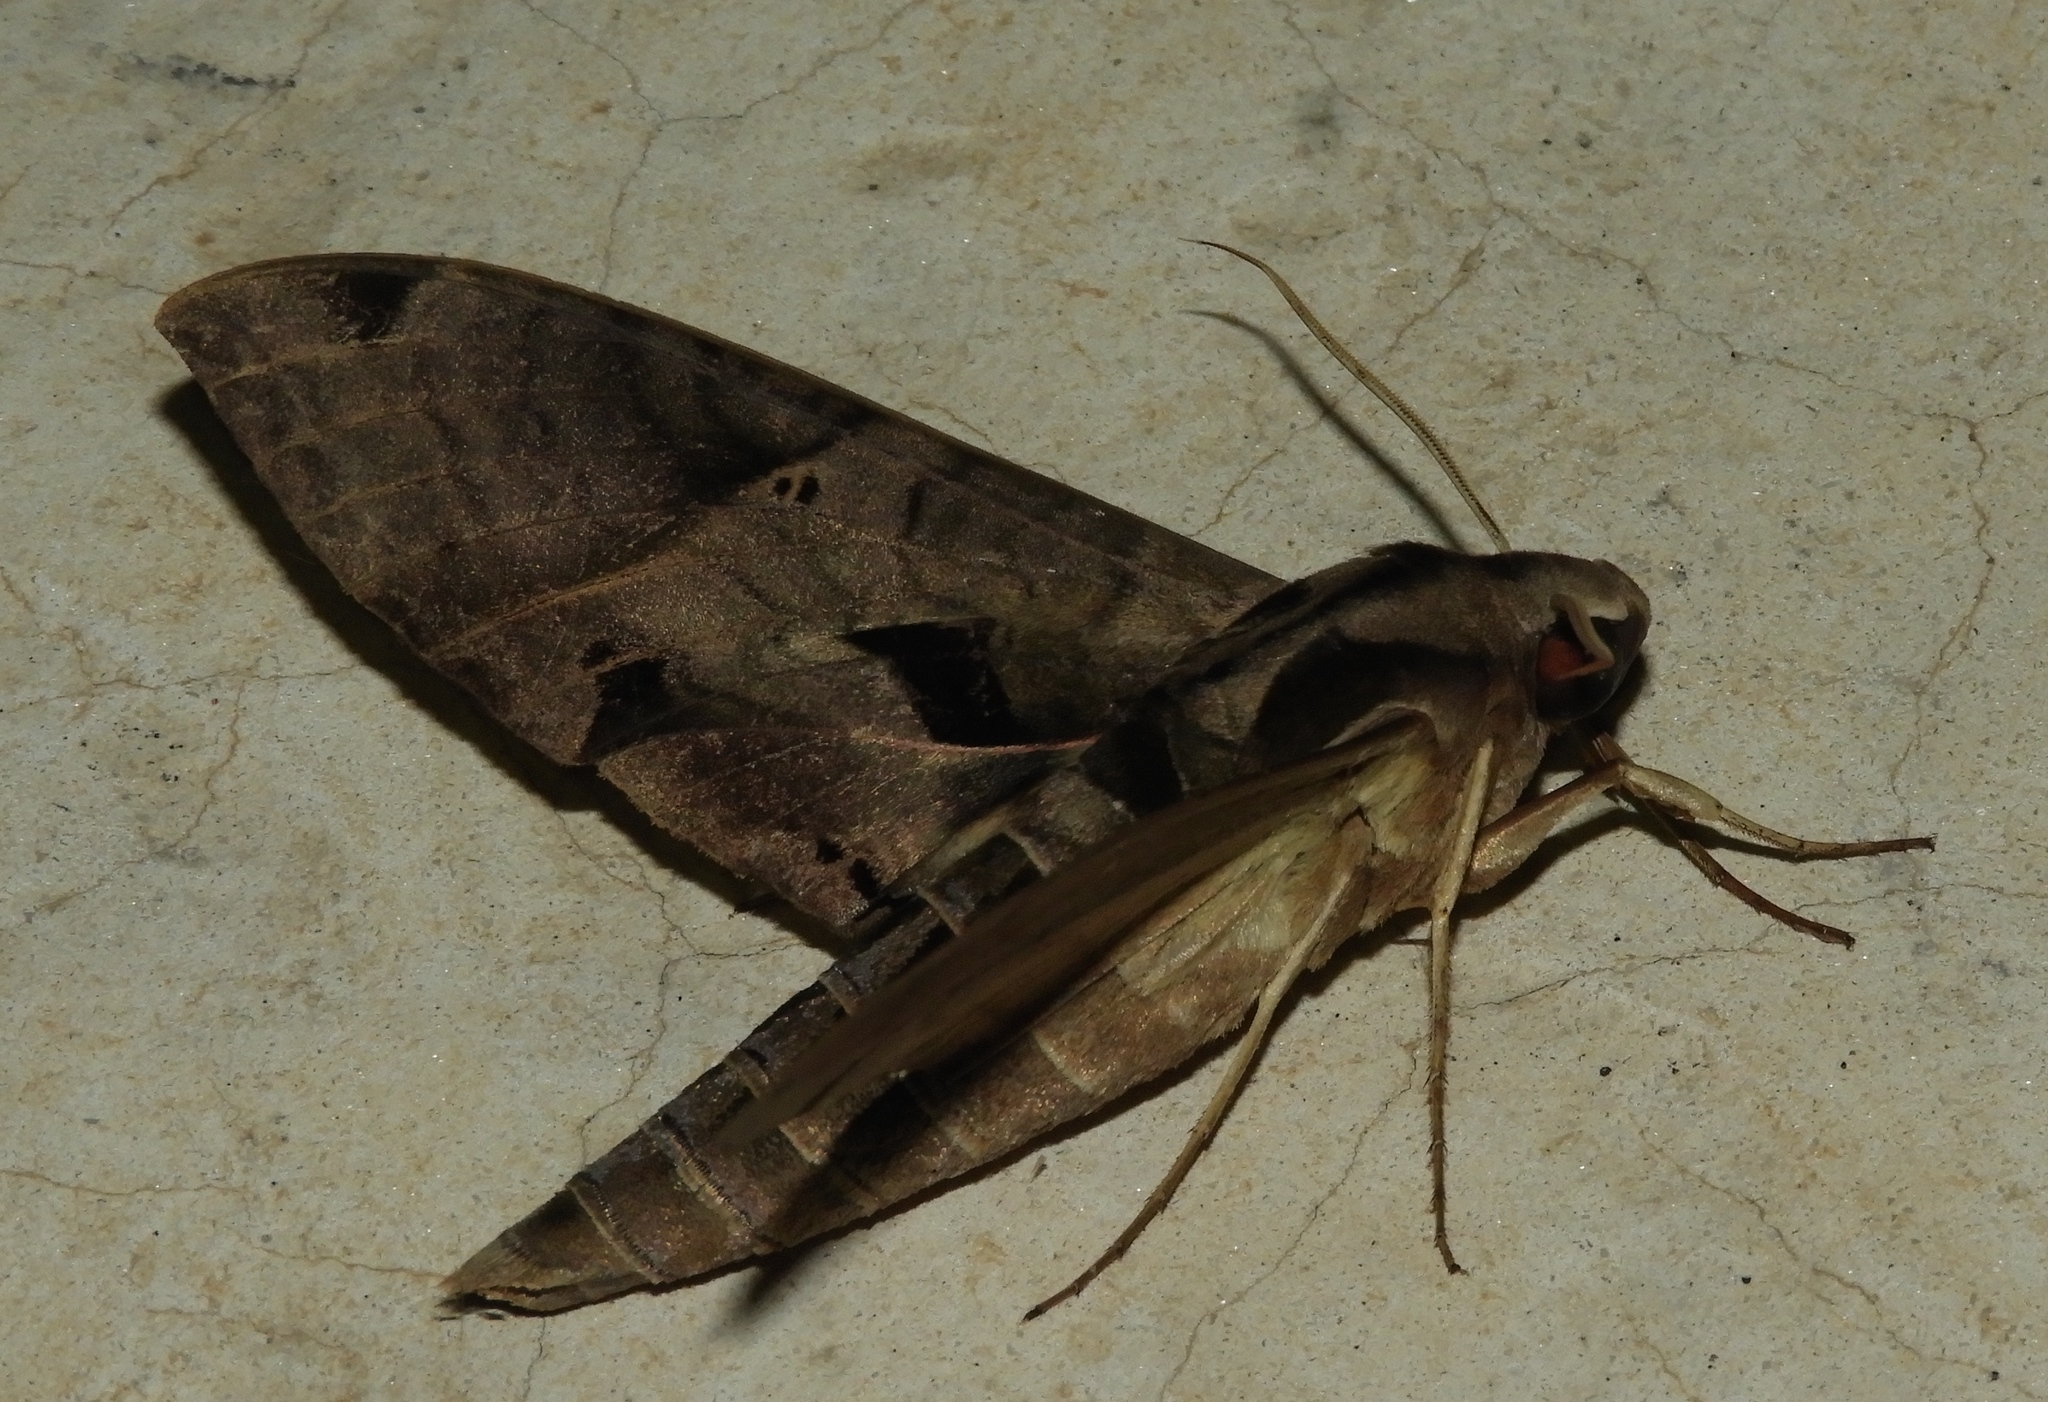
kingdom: Animalia
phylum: Arthropoda
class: Insecta
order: Lepidoptera
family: Sphingidae
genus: Eumorpha
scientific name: Eumorpha satellitia
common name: Satellite sphinx
